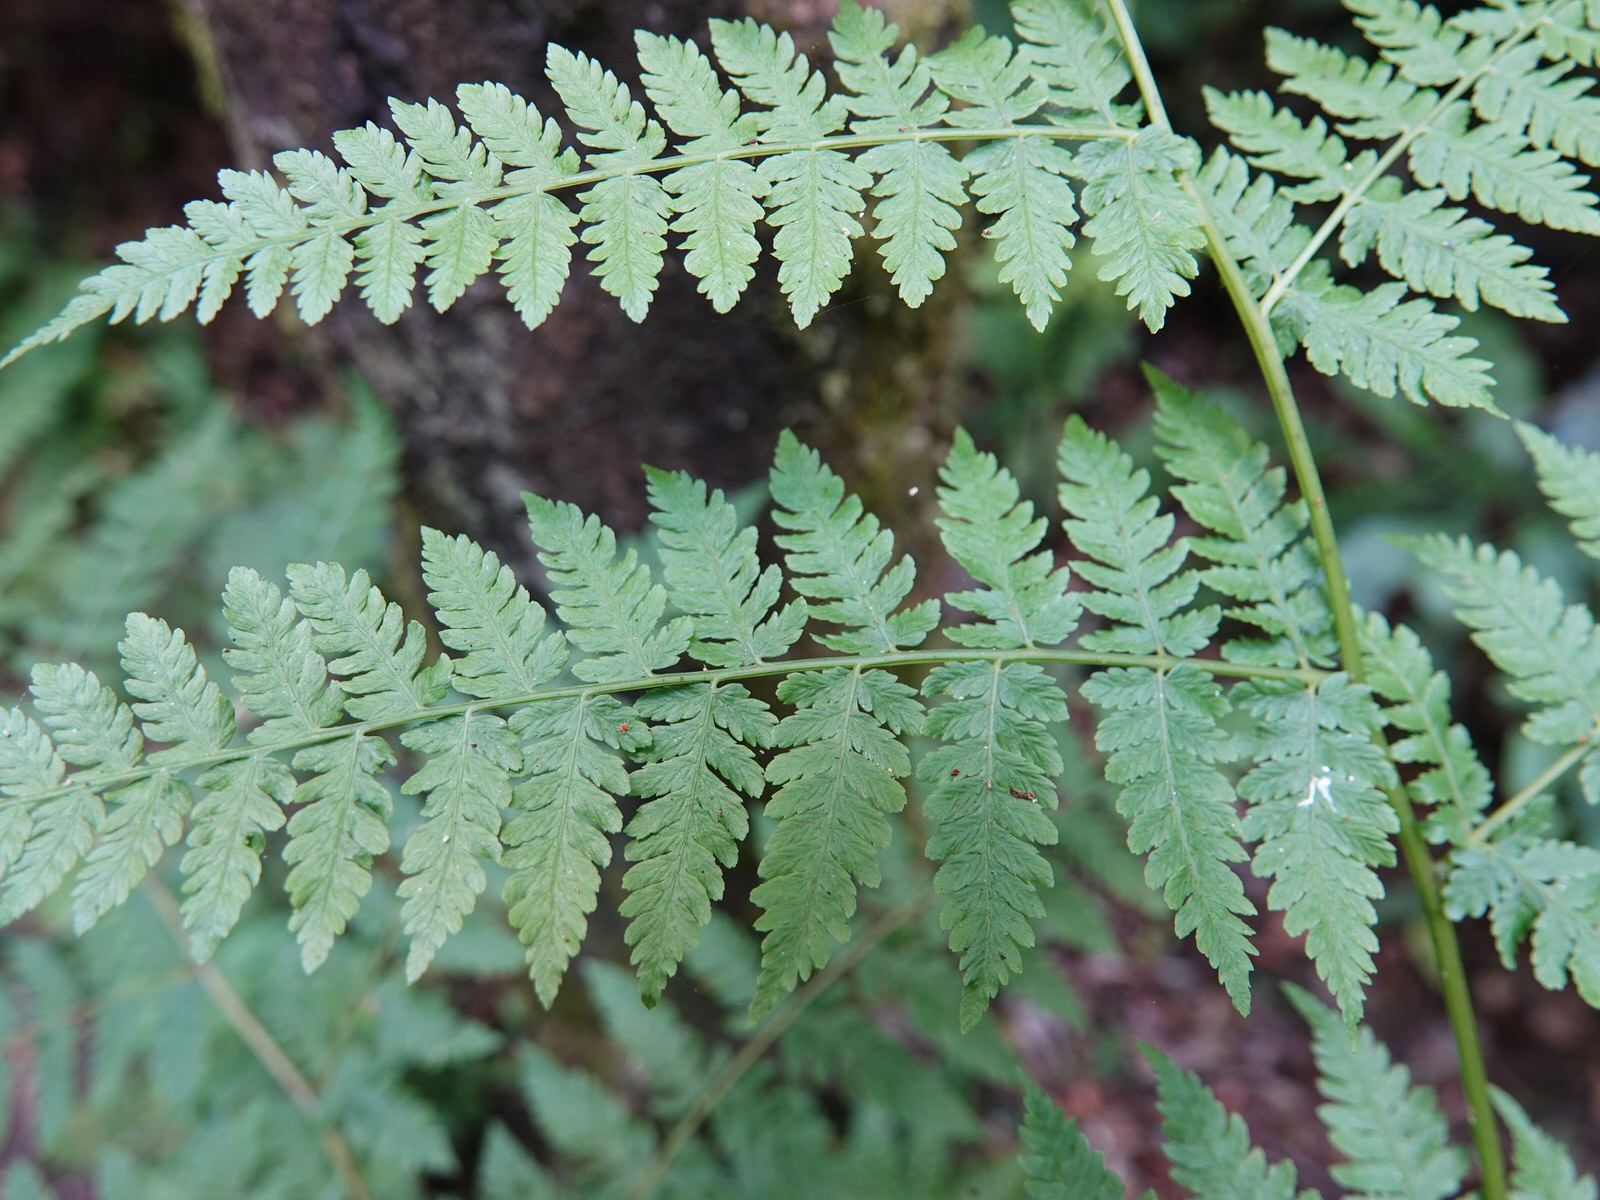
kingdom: Plantae
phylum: Tracheophyta
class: Polypodiopsida
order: Polypodiales
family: Athyriaceae
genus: Diplazium
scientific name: Diplazium australe
